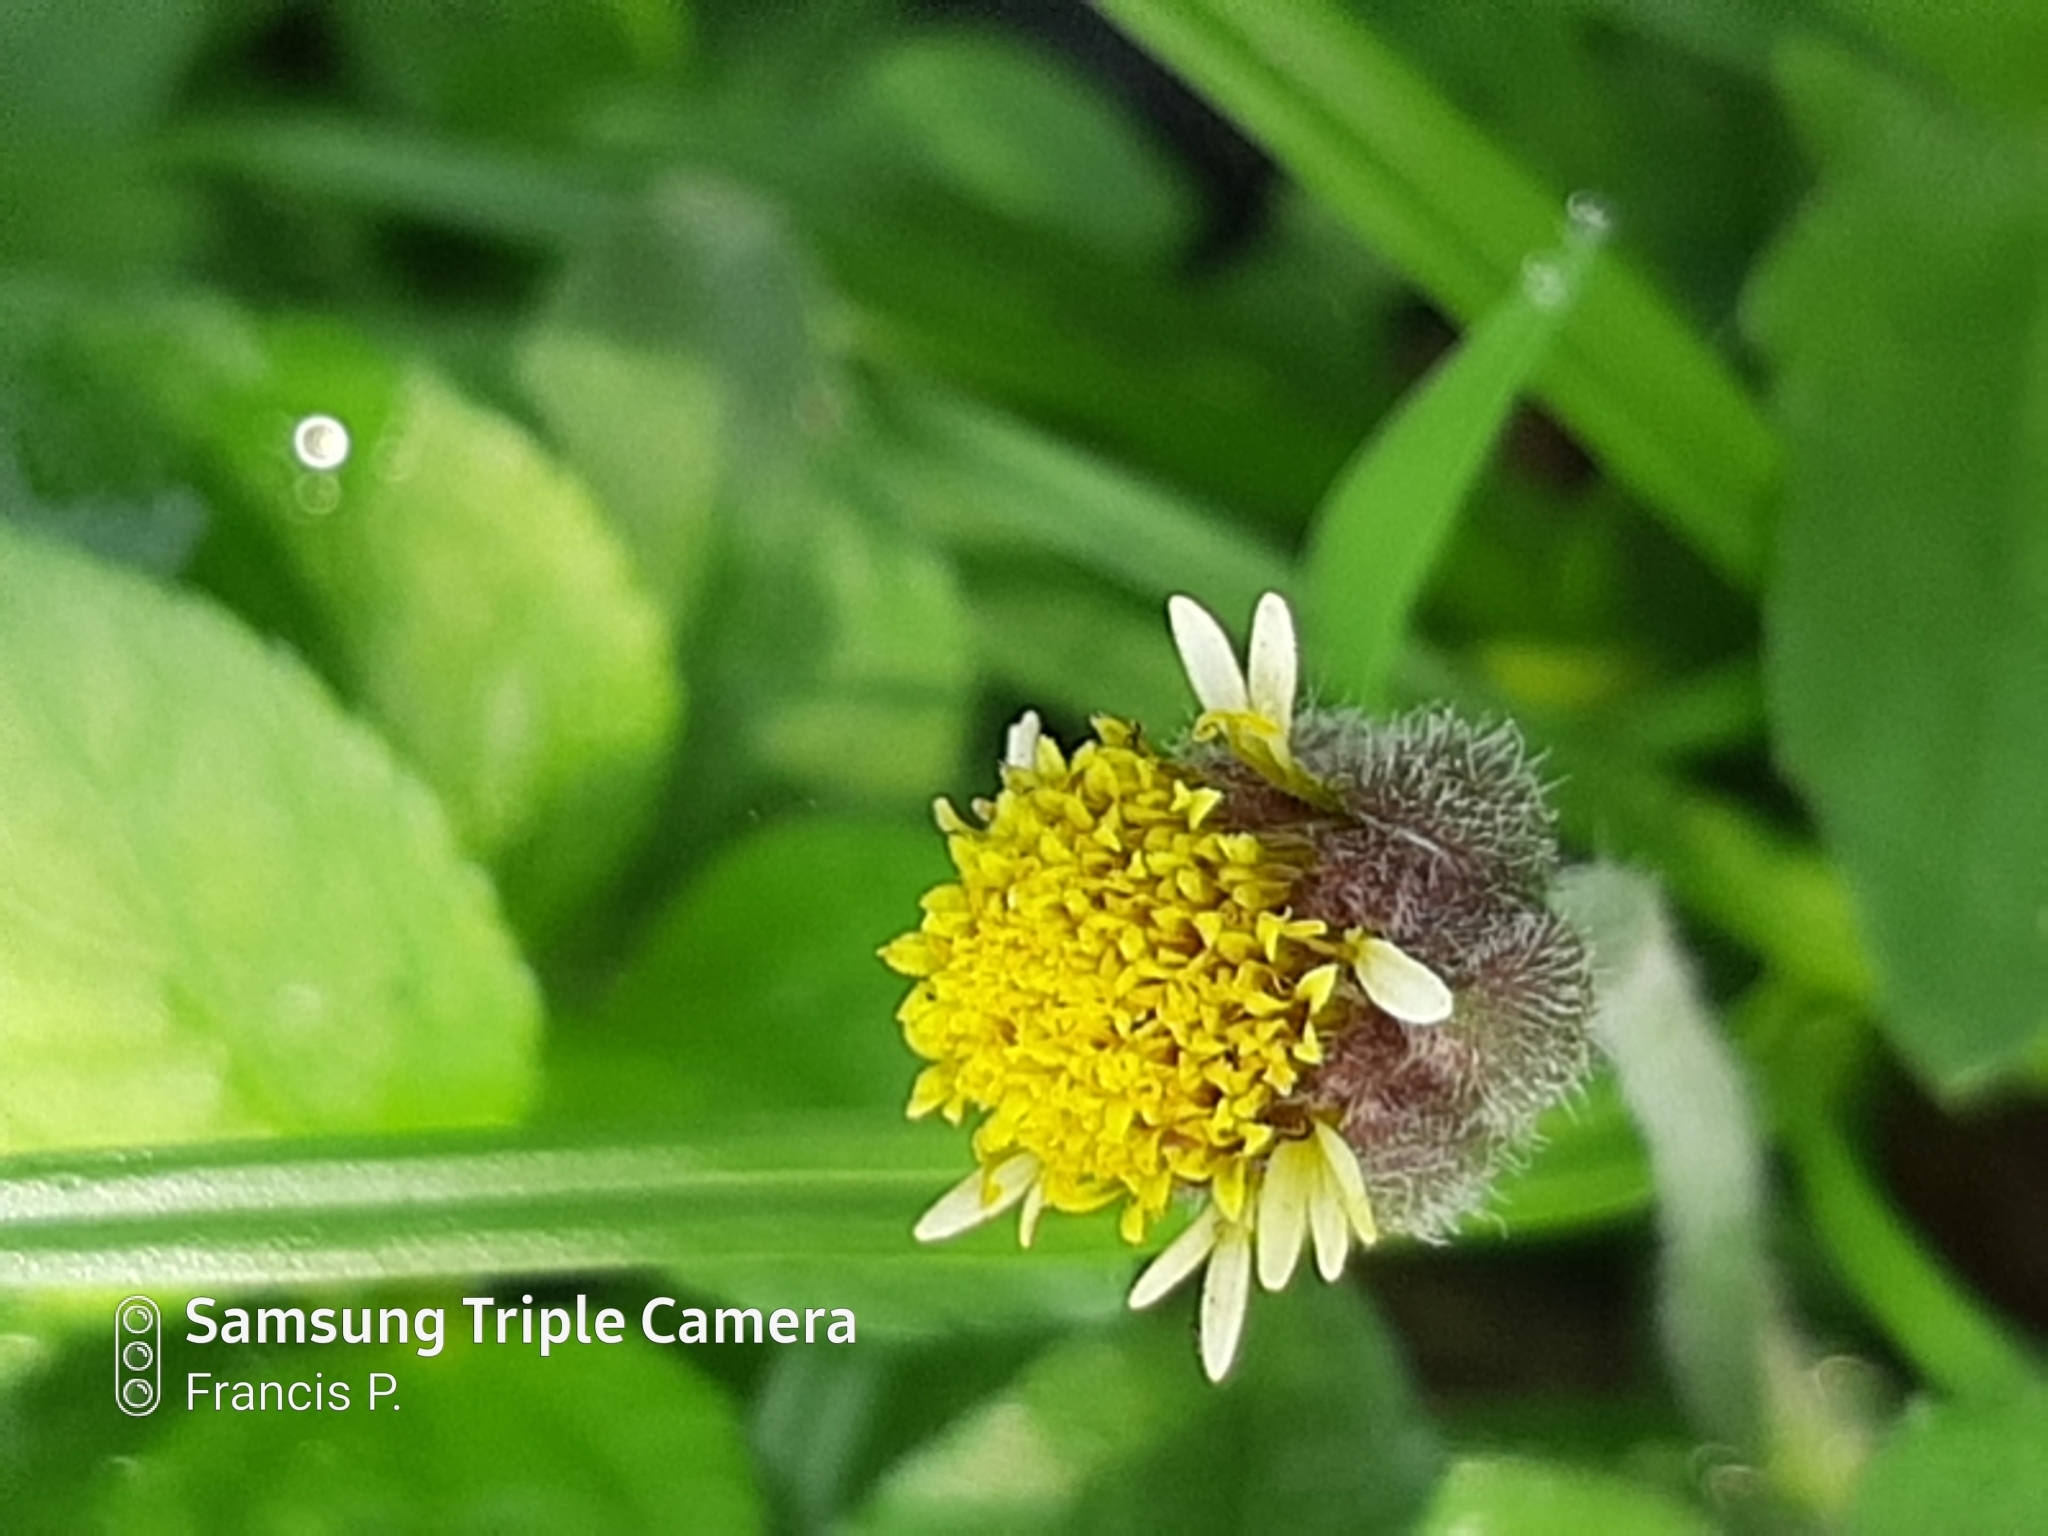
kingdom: Plantae
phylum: Tracheophyta
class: Magnoliopsida
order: Asterales
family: Asteraceae
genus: Tridax
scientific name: Tridax procumbens
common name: Coatbuttons
